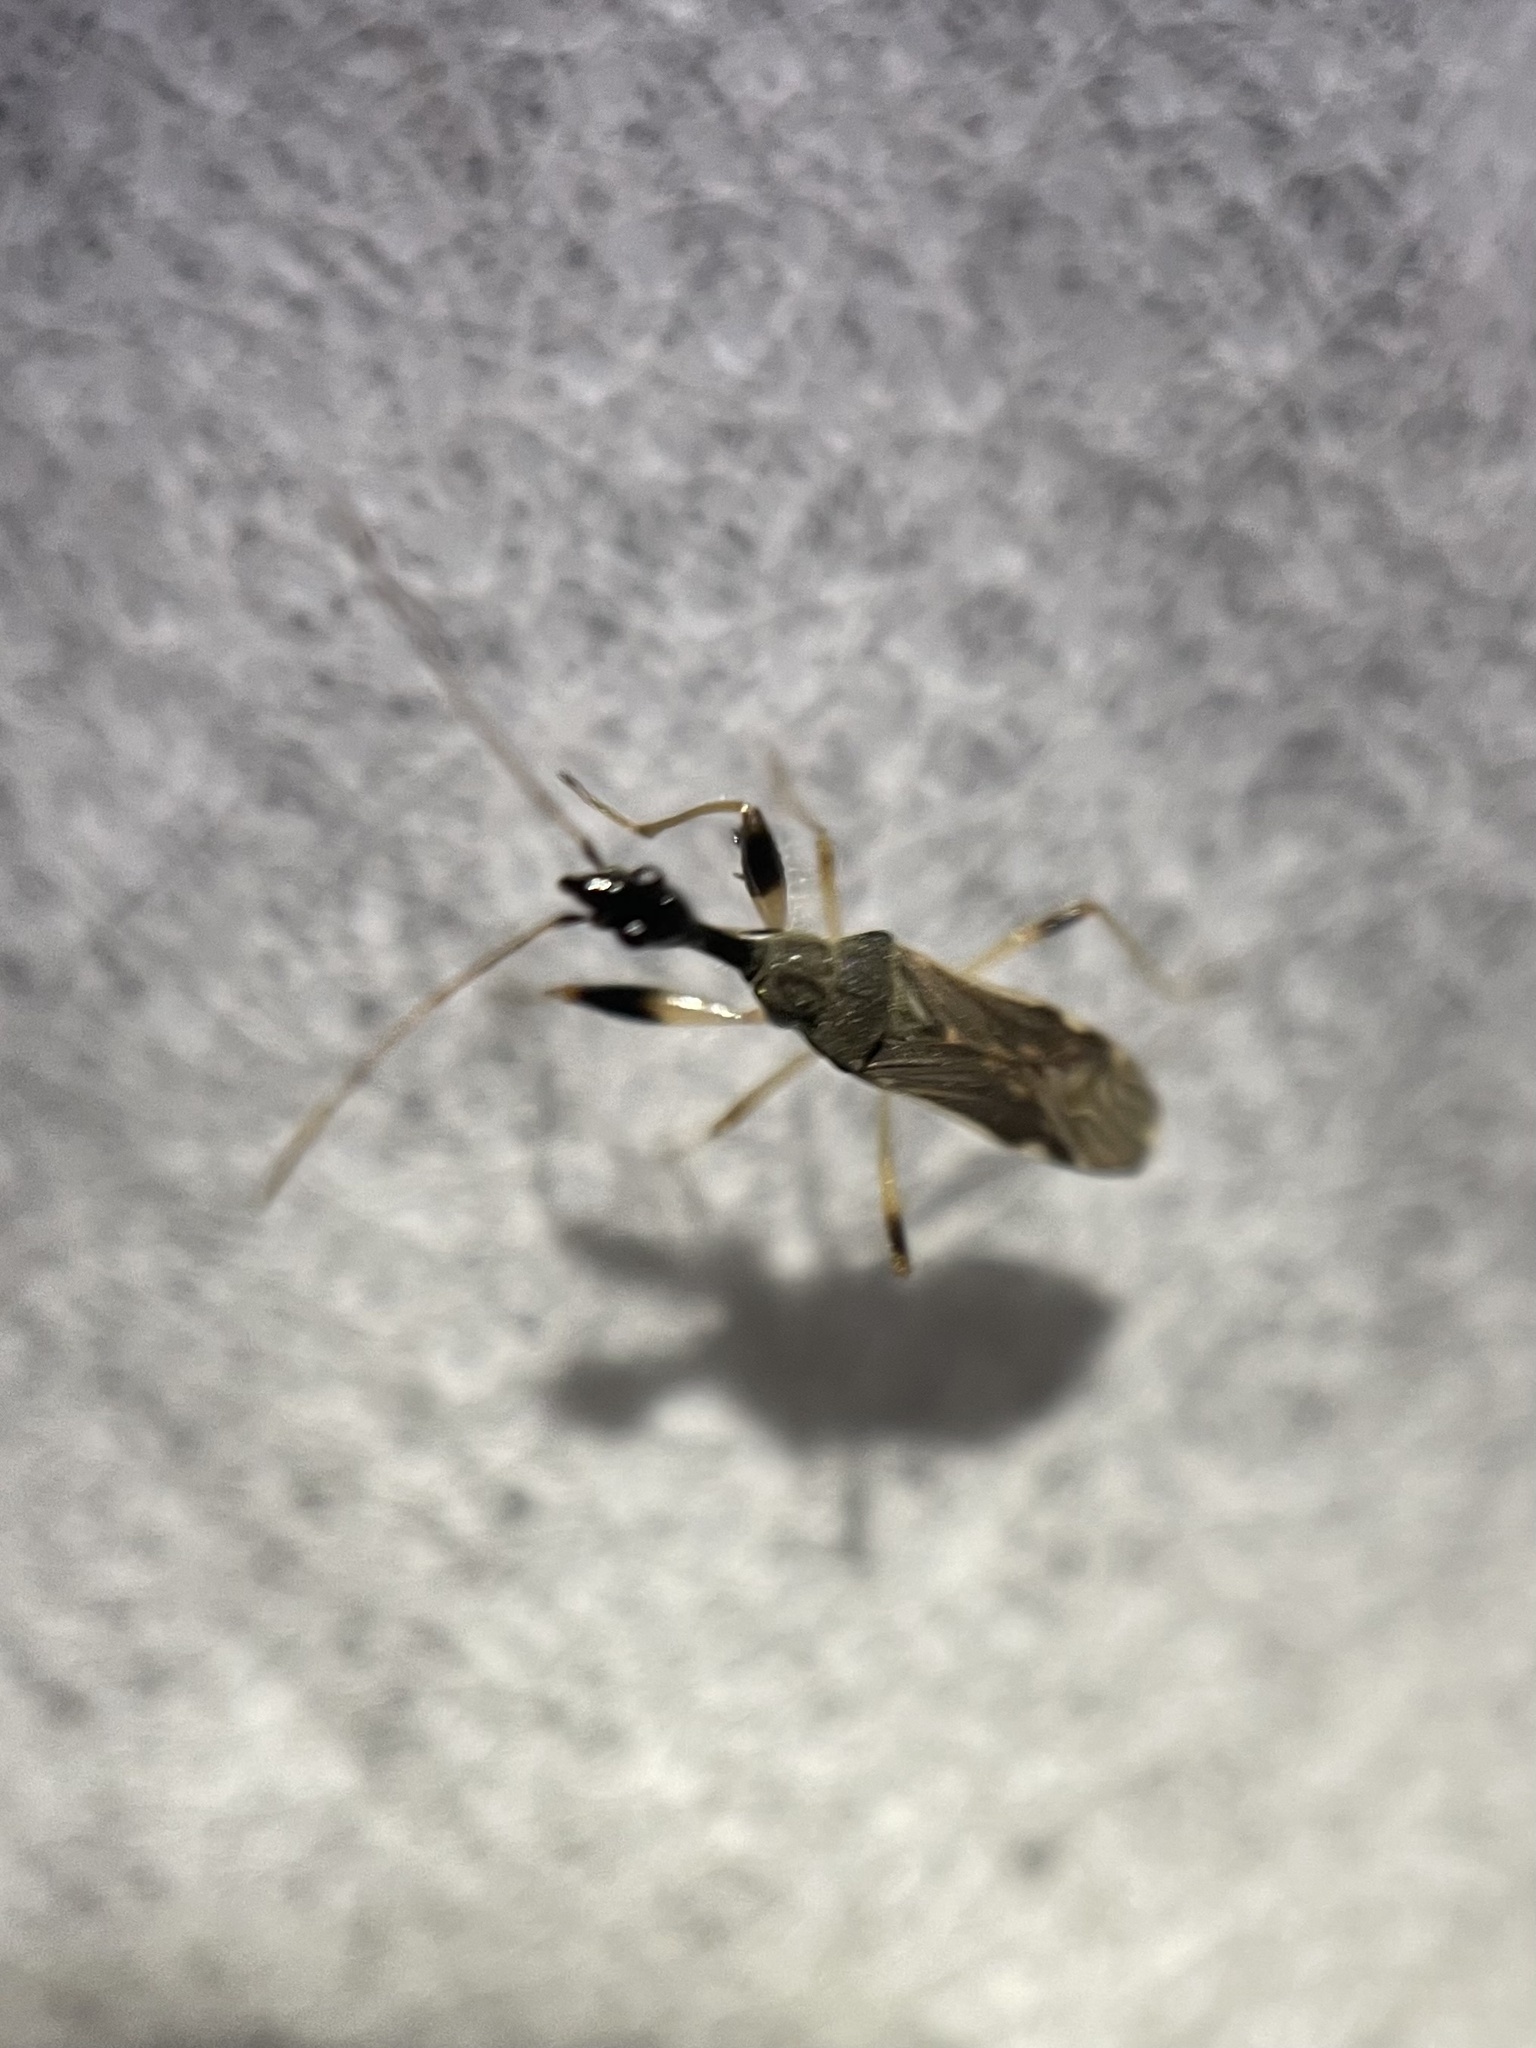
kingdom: Animalia
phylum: Arthropoda
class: Insecta
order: Hemiptera
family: Rhyparochromidae
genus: Myodocha
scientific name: Myodocha serripes
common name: Long-necked seed bug
